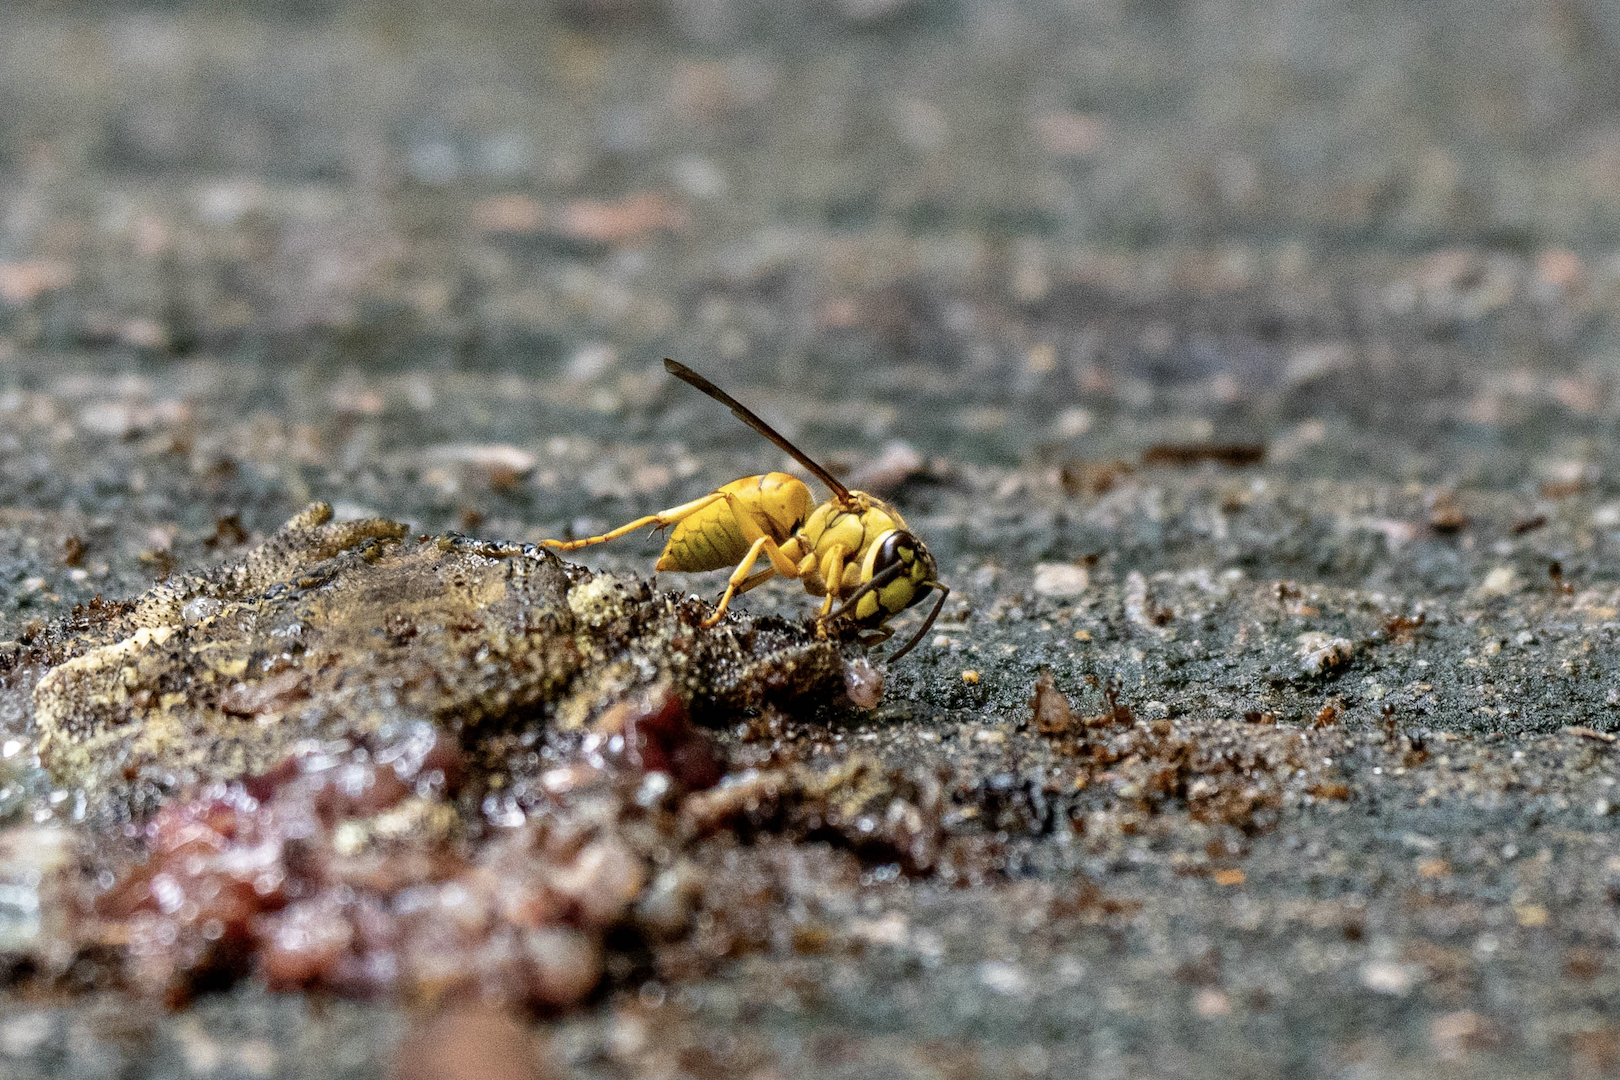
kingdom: Animalia
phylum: Arthropoda
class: Insecta
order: Hymenoptera
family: Vespidae
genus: Vespa
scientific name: Vespa bicolor
